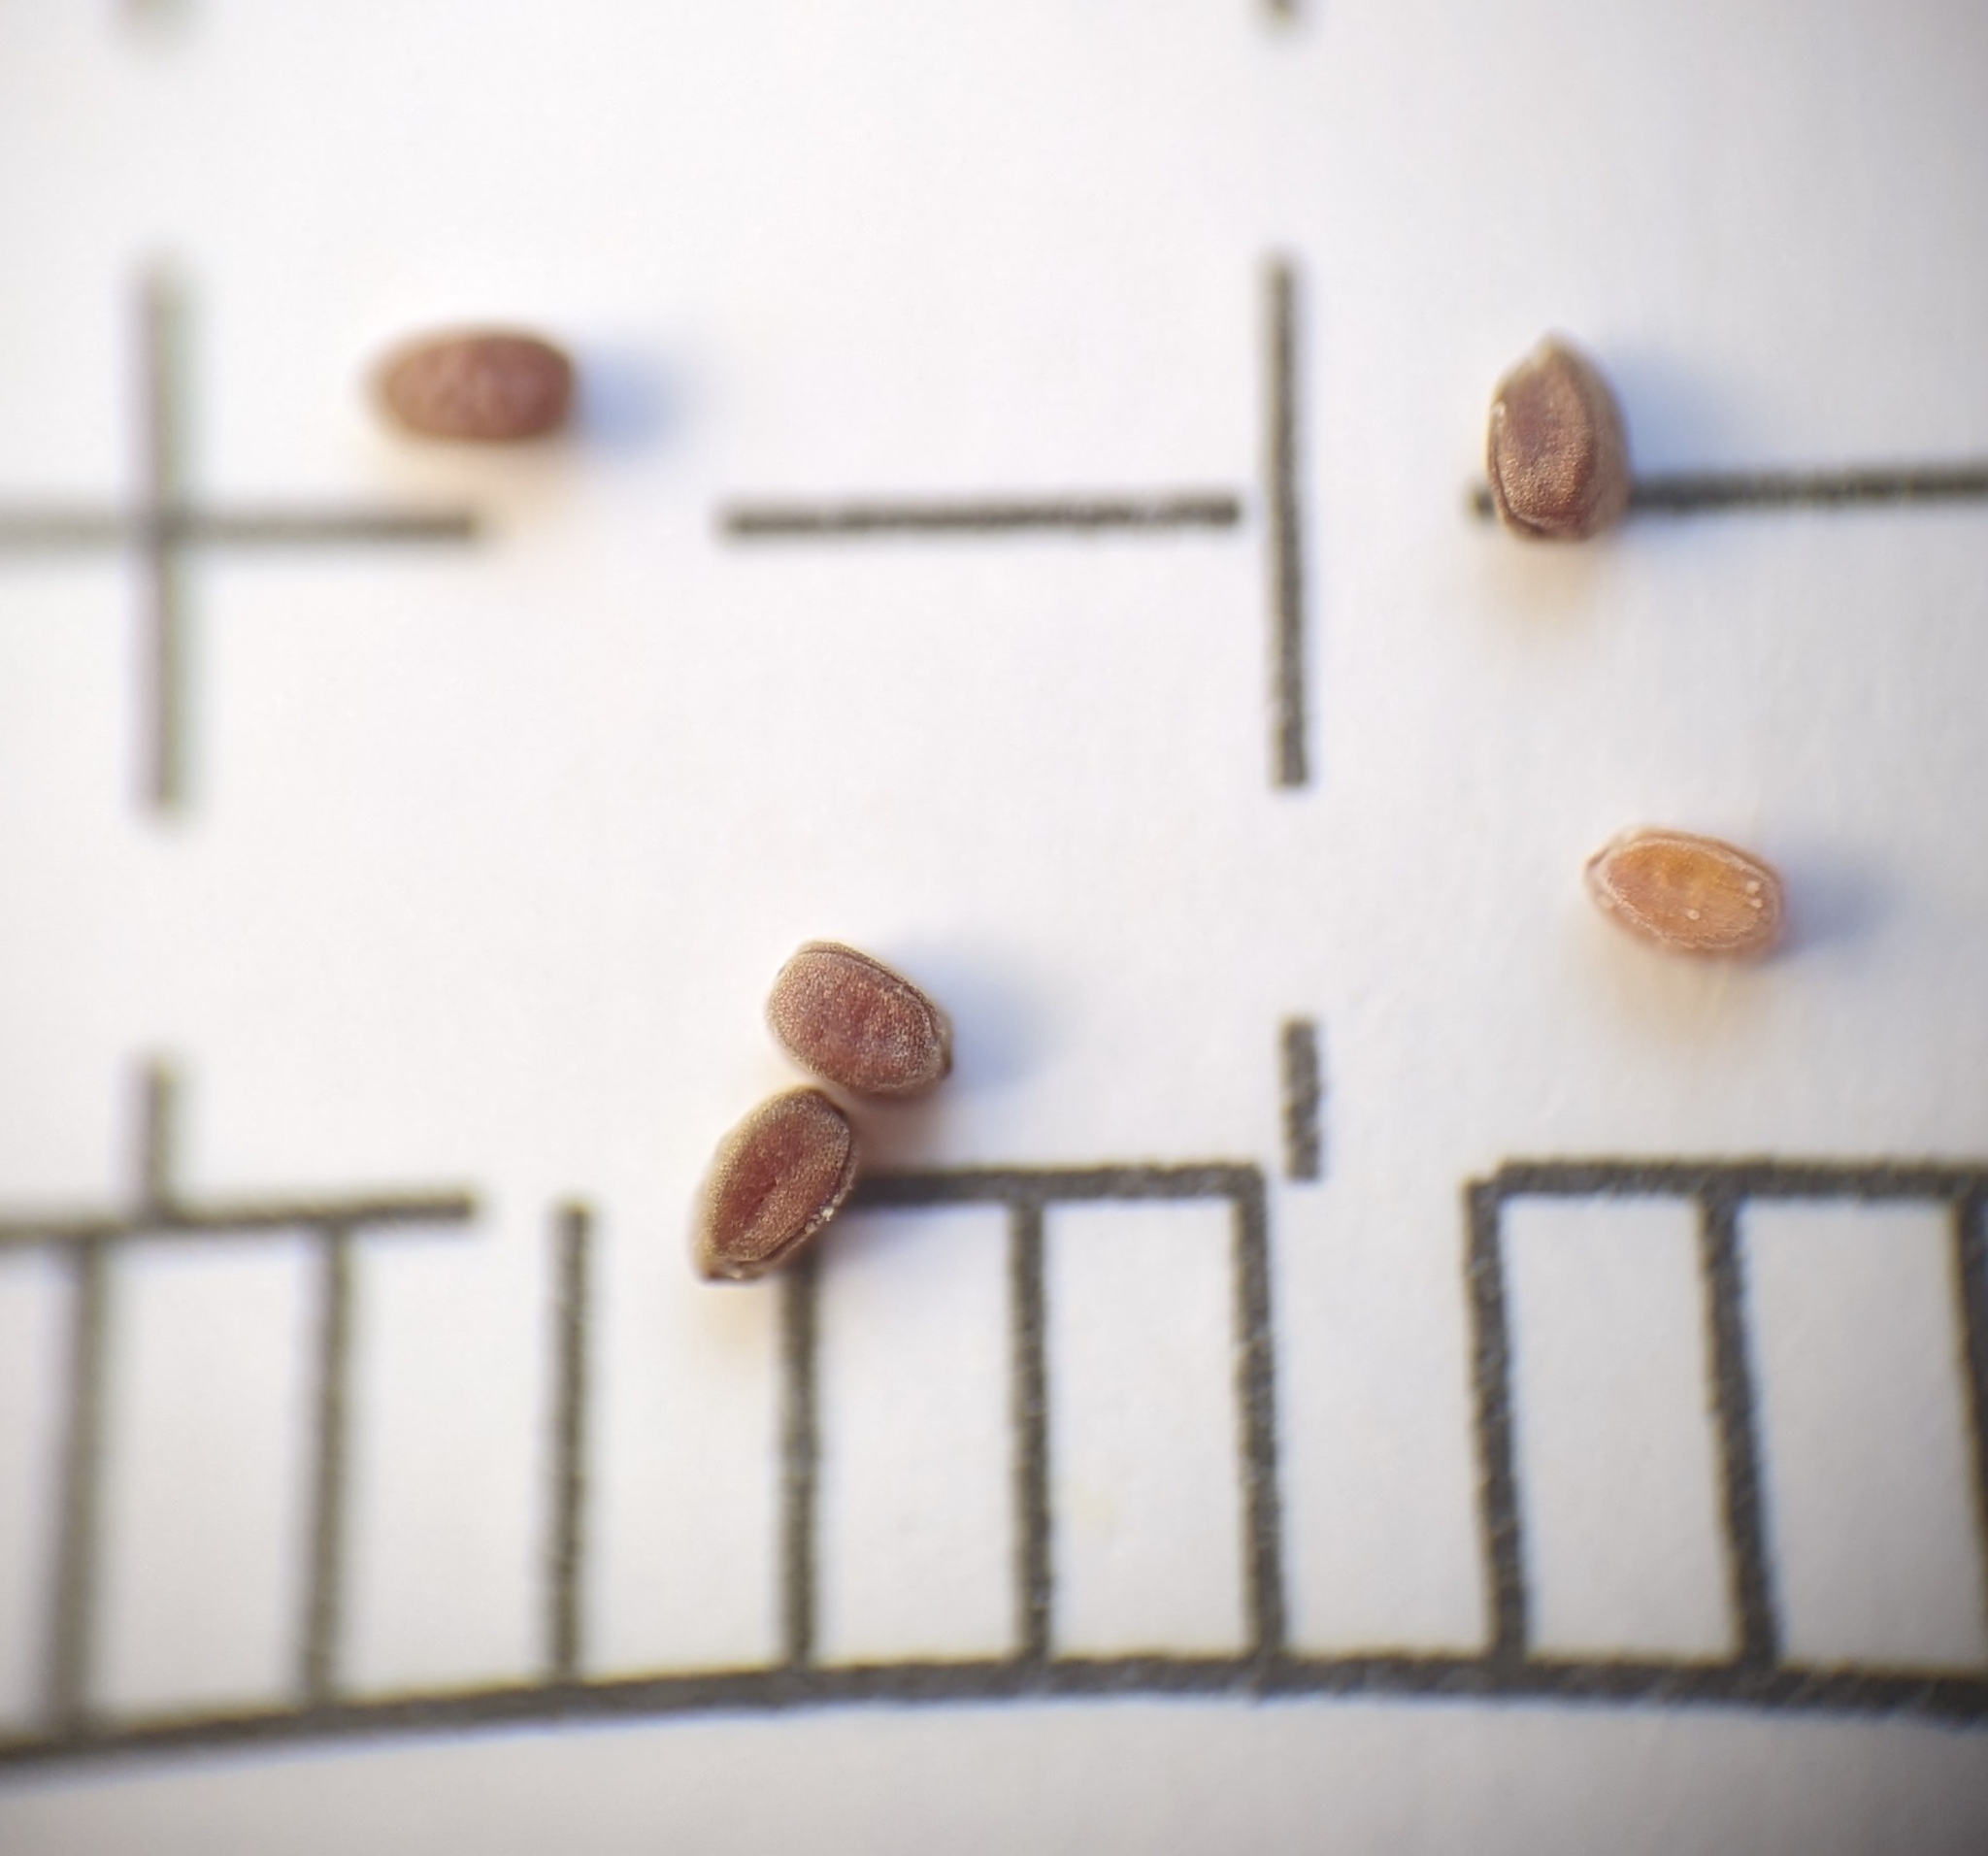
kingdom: Plantae
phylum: Tracheophyta
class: Magnoliopsida
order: Malpighiales
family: Euphorbiaceae
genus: Euphorbia
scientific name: Euphorbia blodgettii
